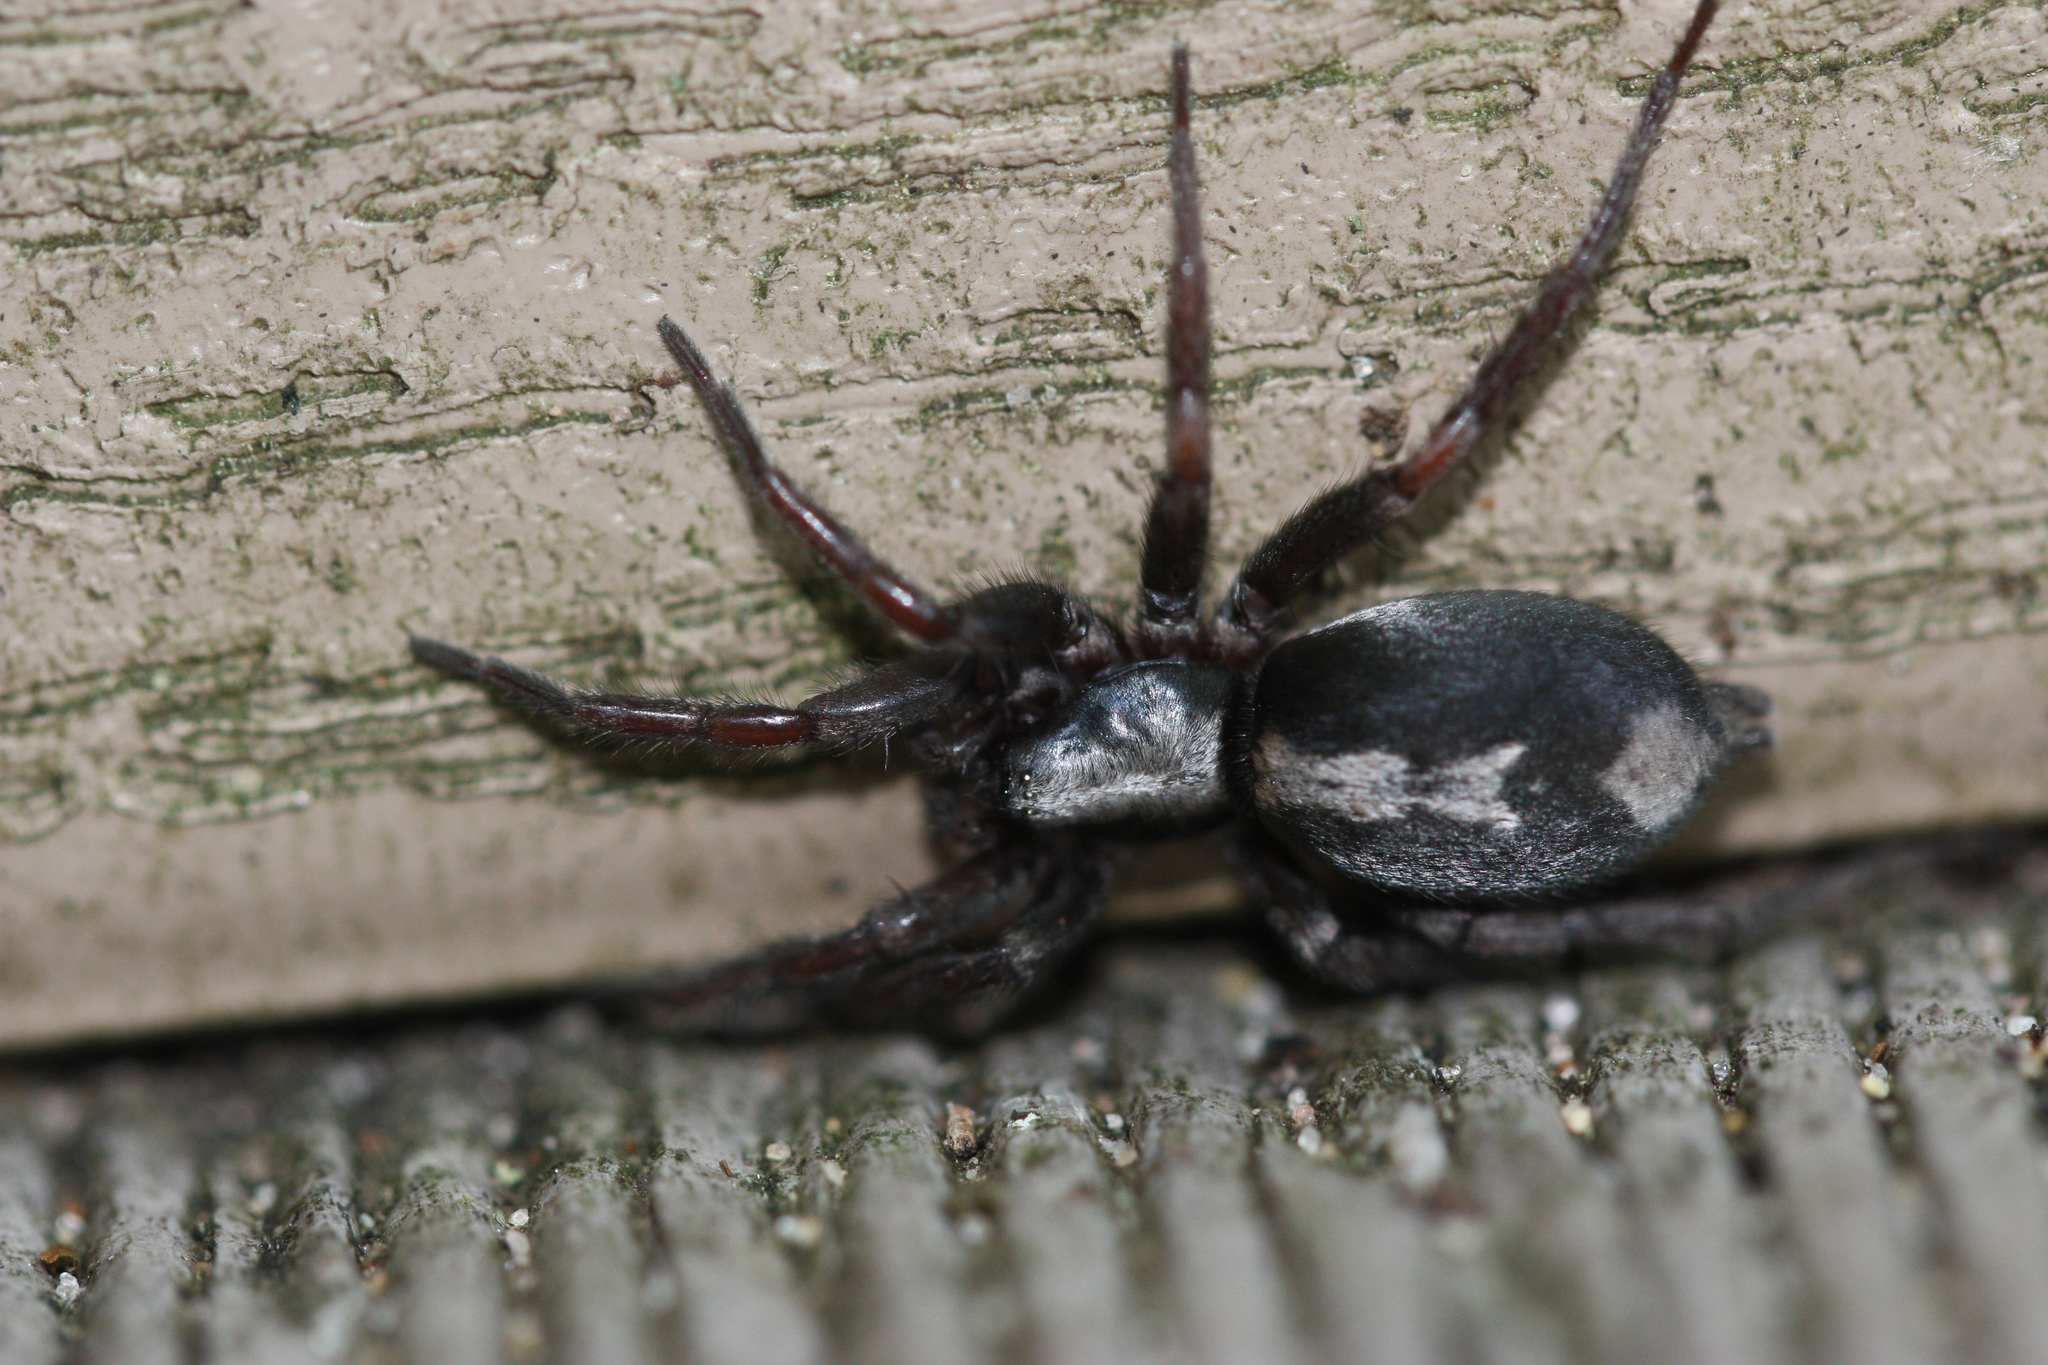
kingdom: Animalia
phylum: Arthropoda
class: Arachnida
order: Araneae
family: Gnaphosidae
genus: Herpyllus
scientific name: Herpyllus ecclesiasticus
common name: Eastern parson spider
